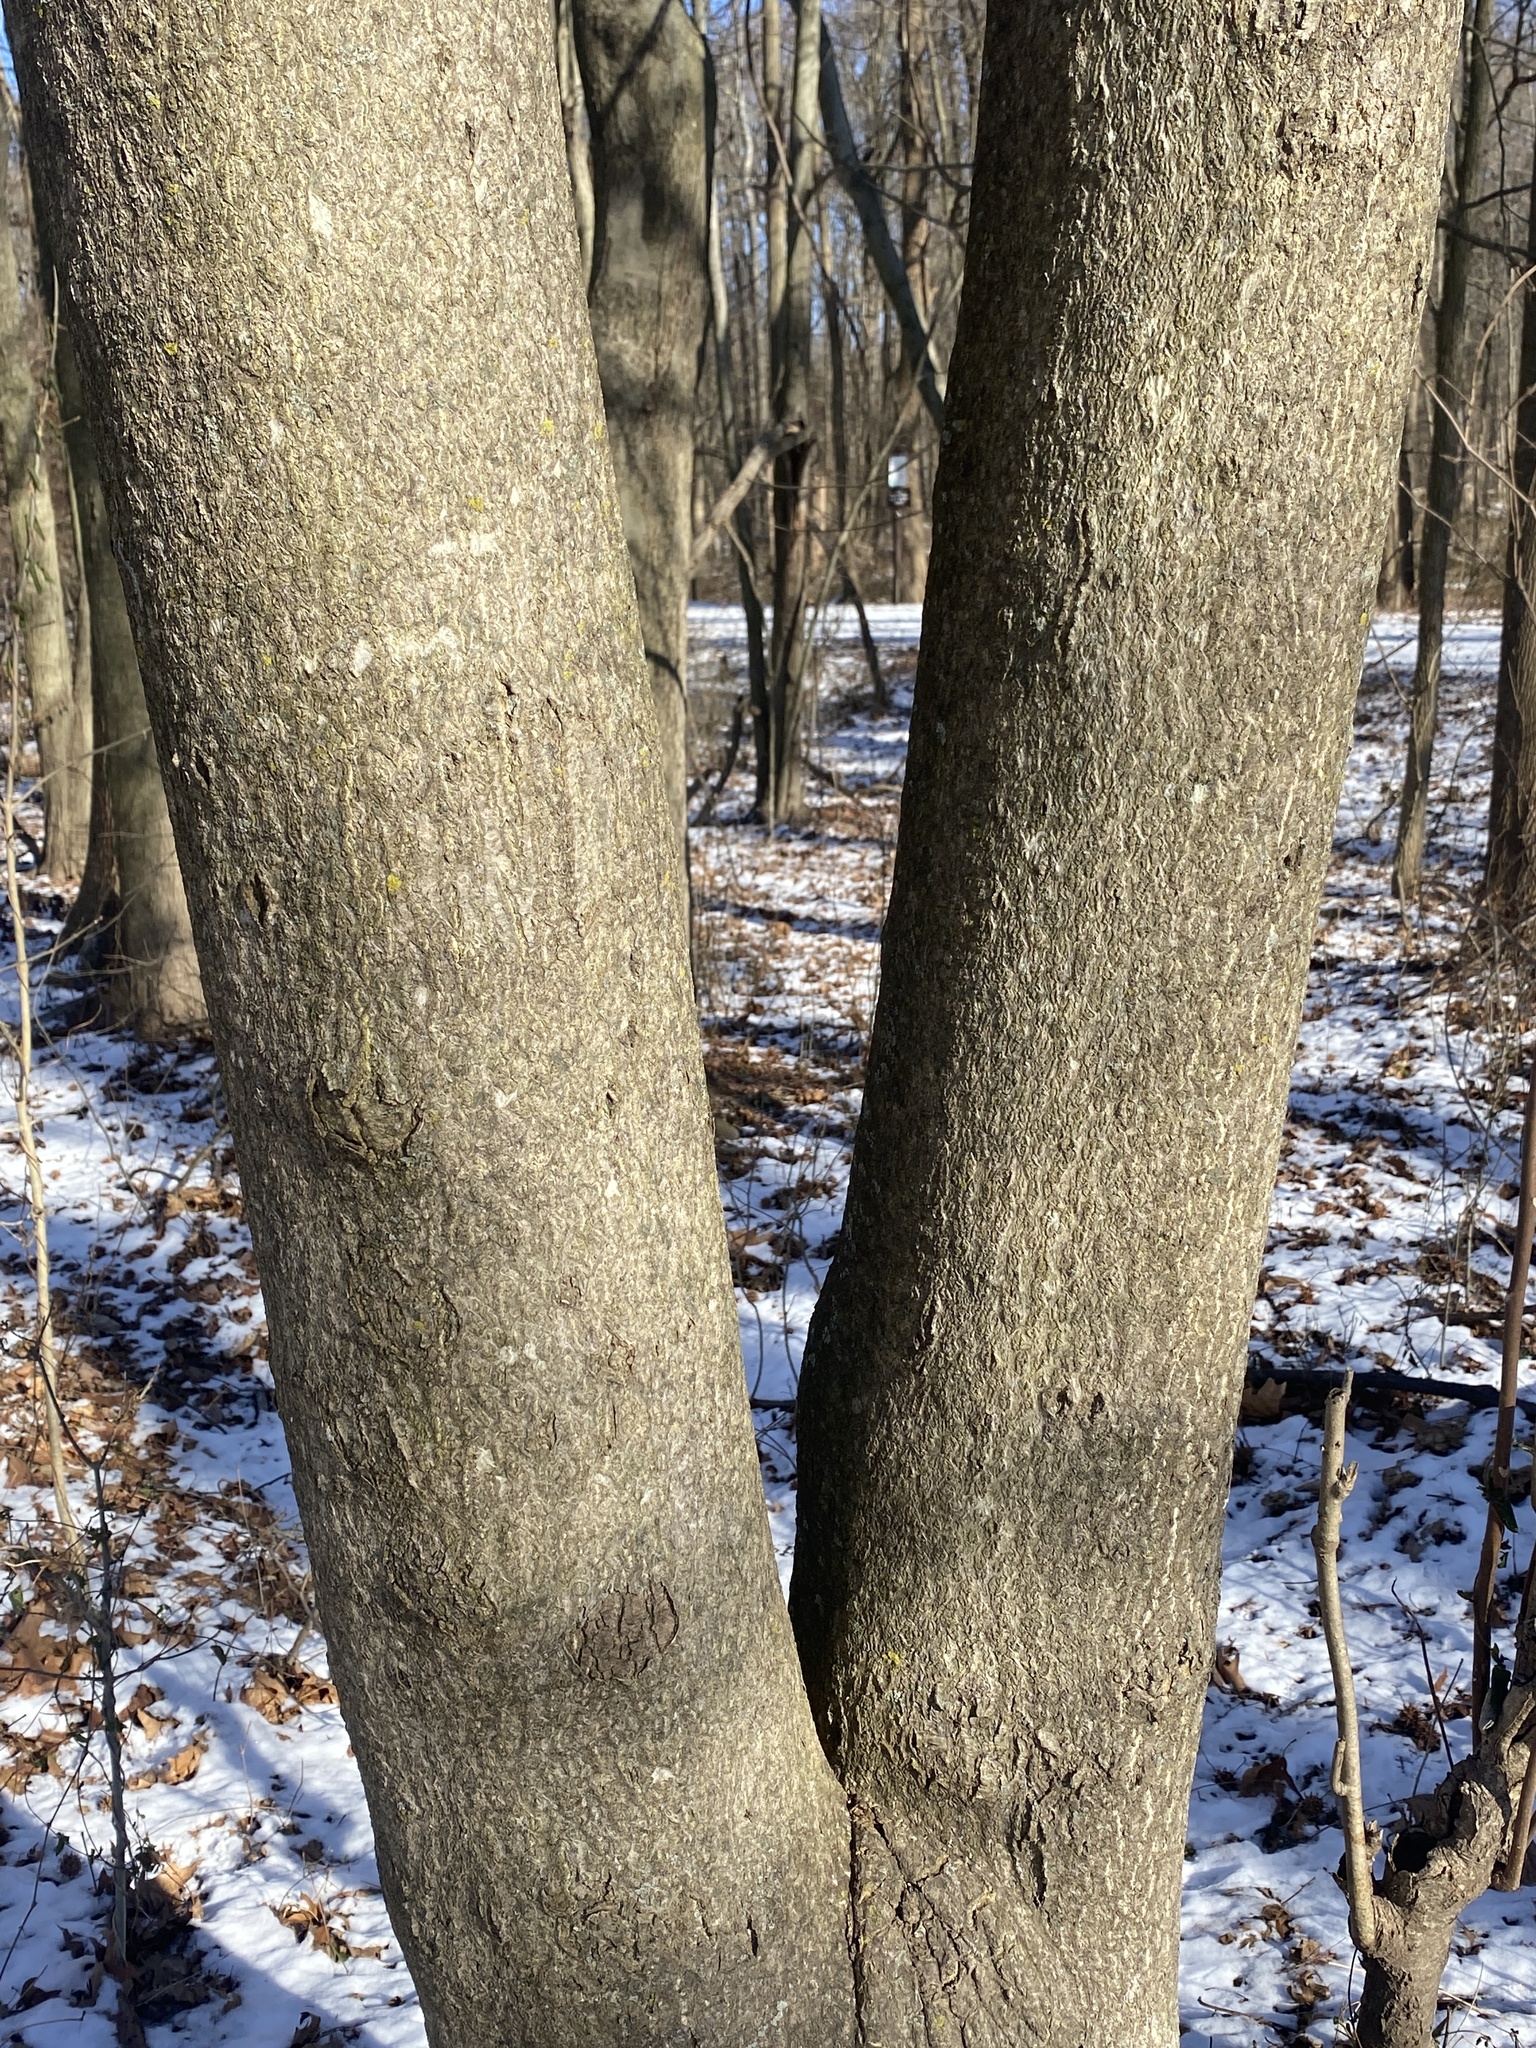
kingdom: Plantae
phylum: Tracheophyta
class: Magnoliopsida
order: Sapindales
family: Simaroubaceae
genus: Ailanthus
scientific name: Ailanthus altissima
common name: Tree-of-heaven
